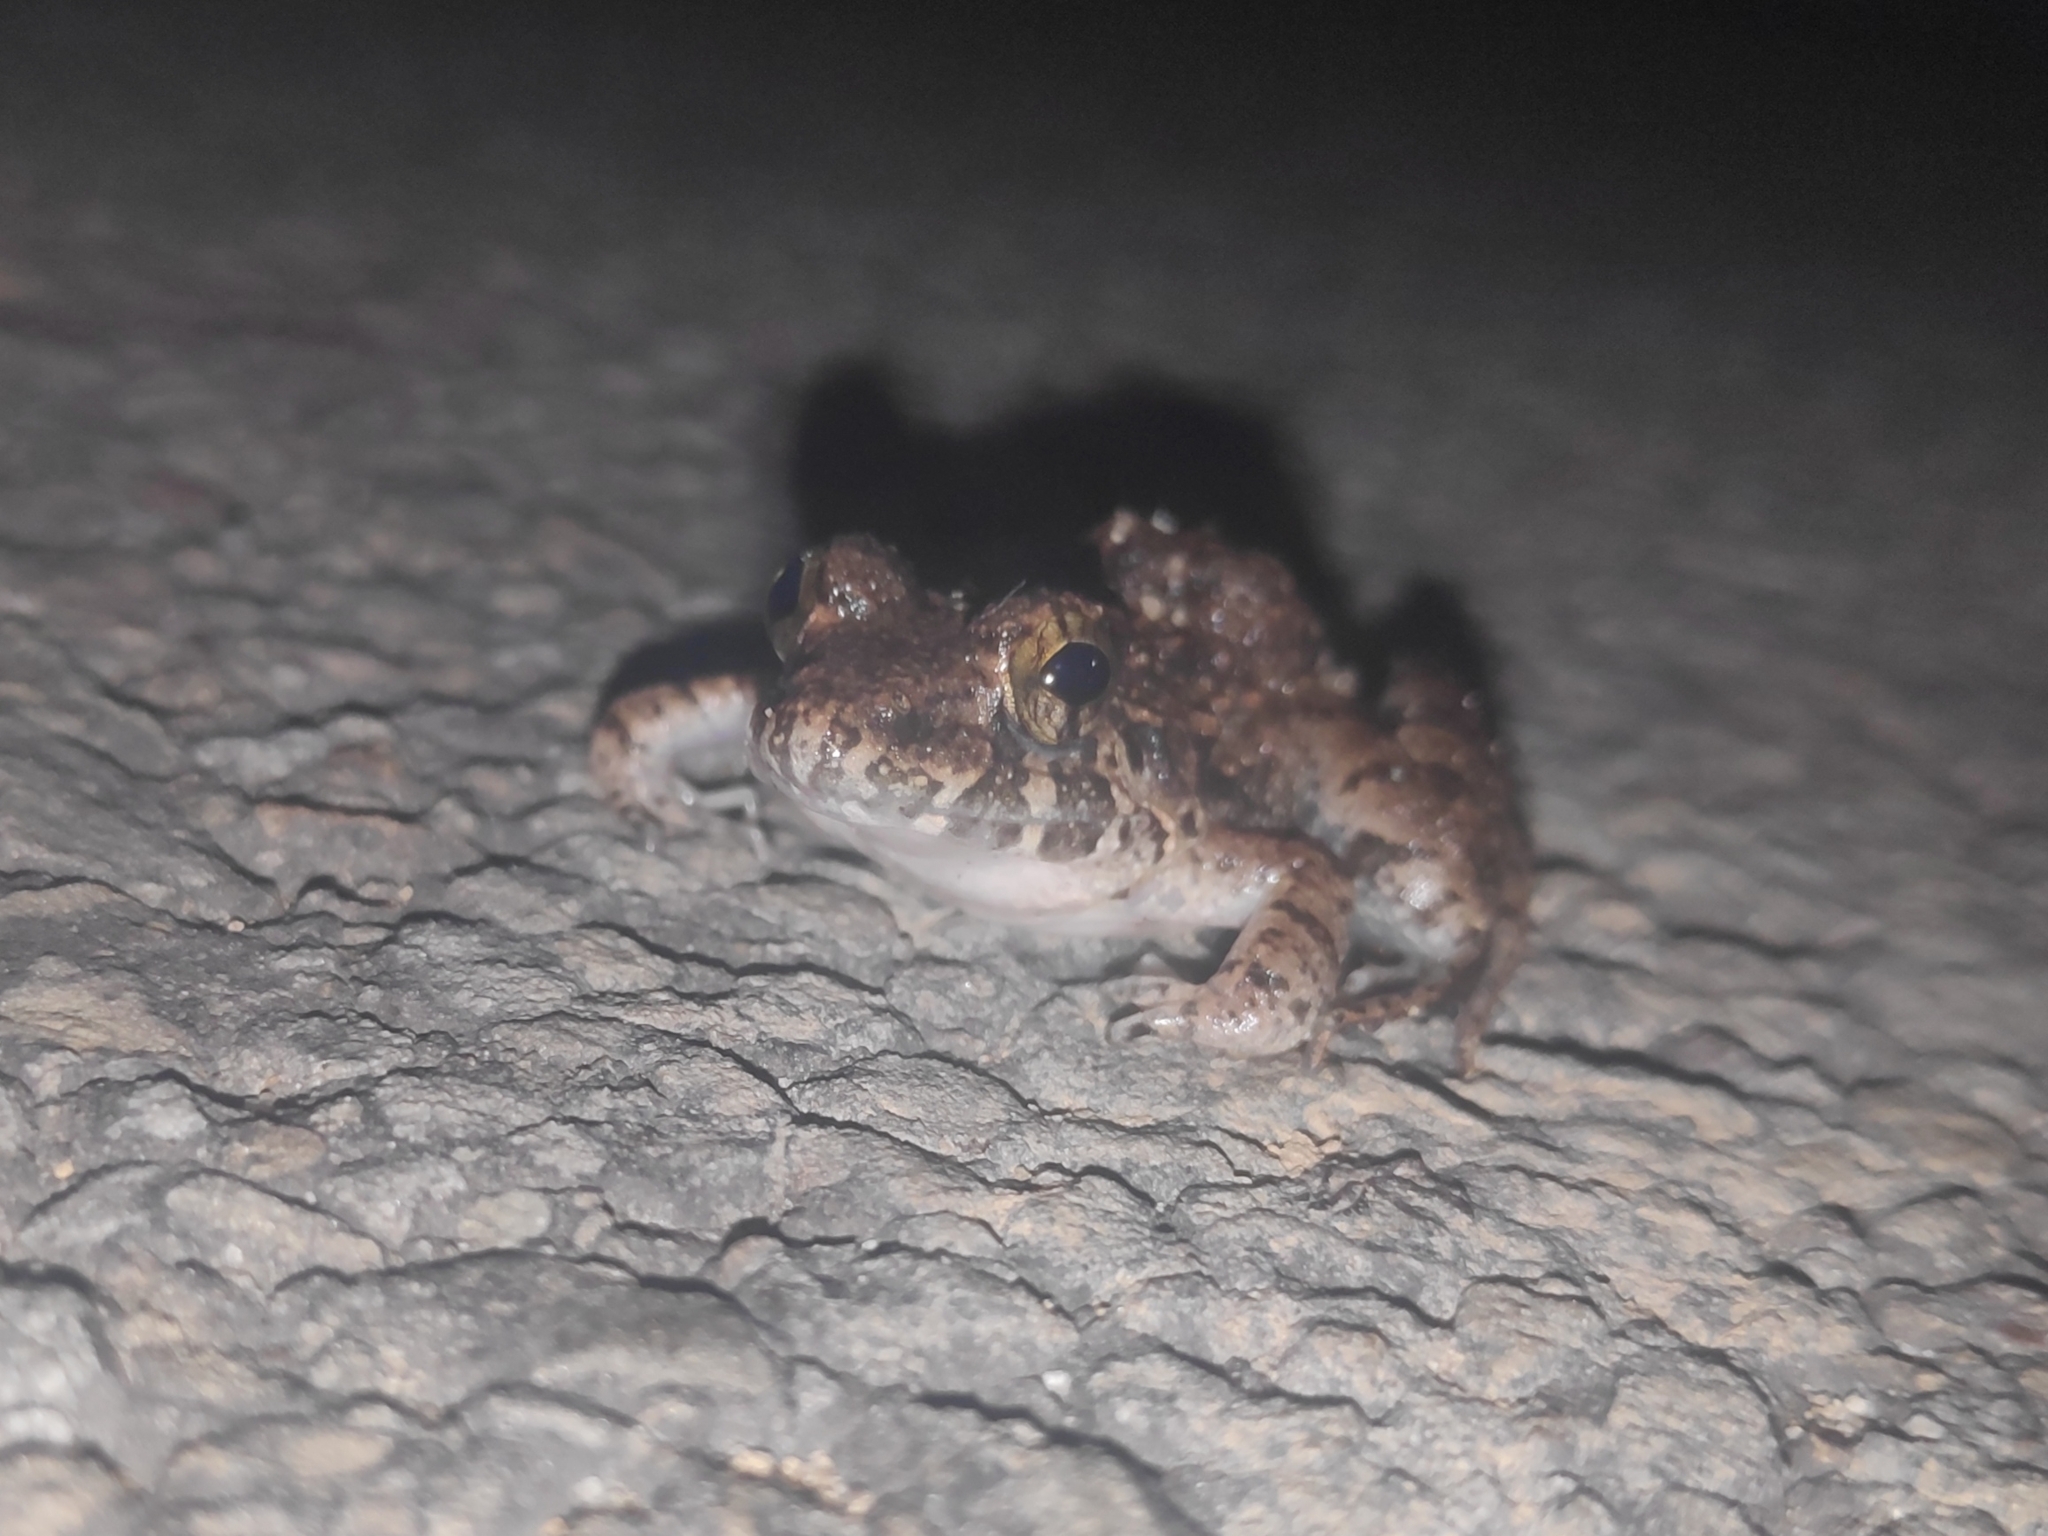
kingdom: Animalia
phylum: Chordata
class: Amphibia
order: Anura
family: Dicroglossidae
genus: Fejervarya
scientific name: Fejervarya limnocharis
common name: Asian grass frog/common pond frog/field frog/grass frog/indian rice frog
